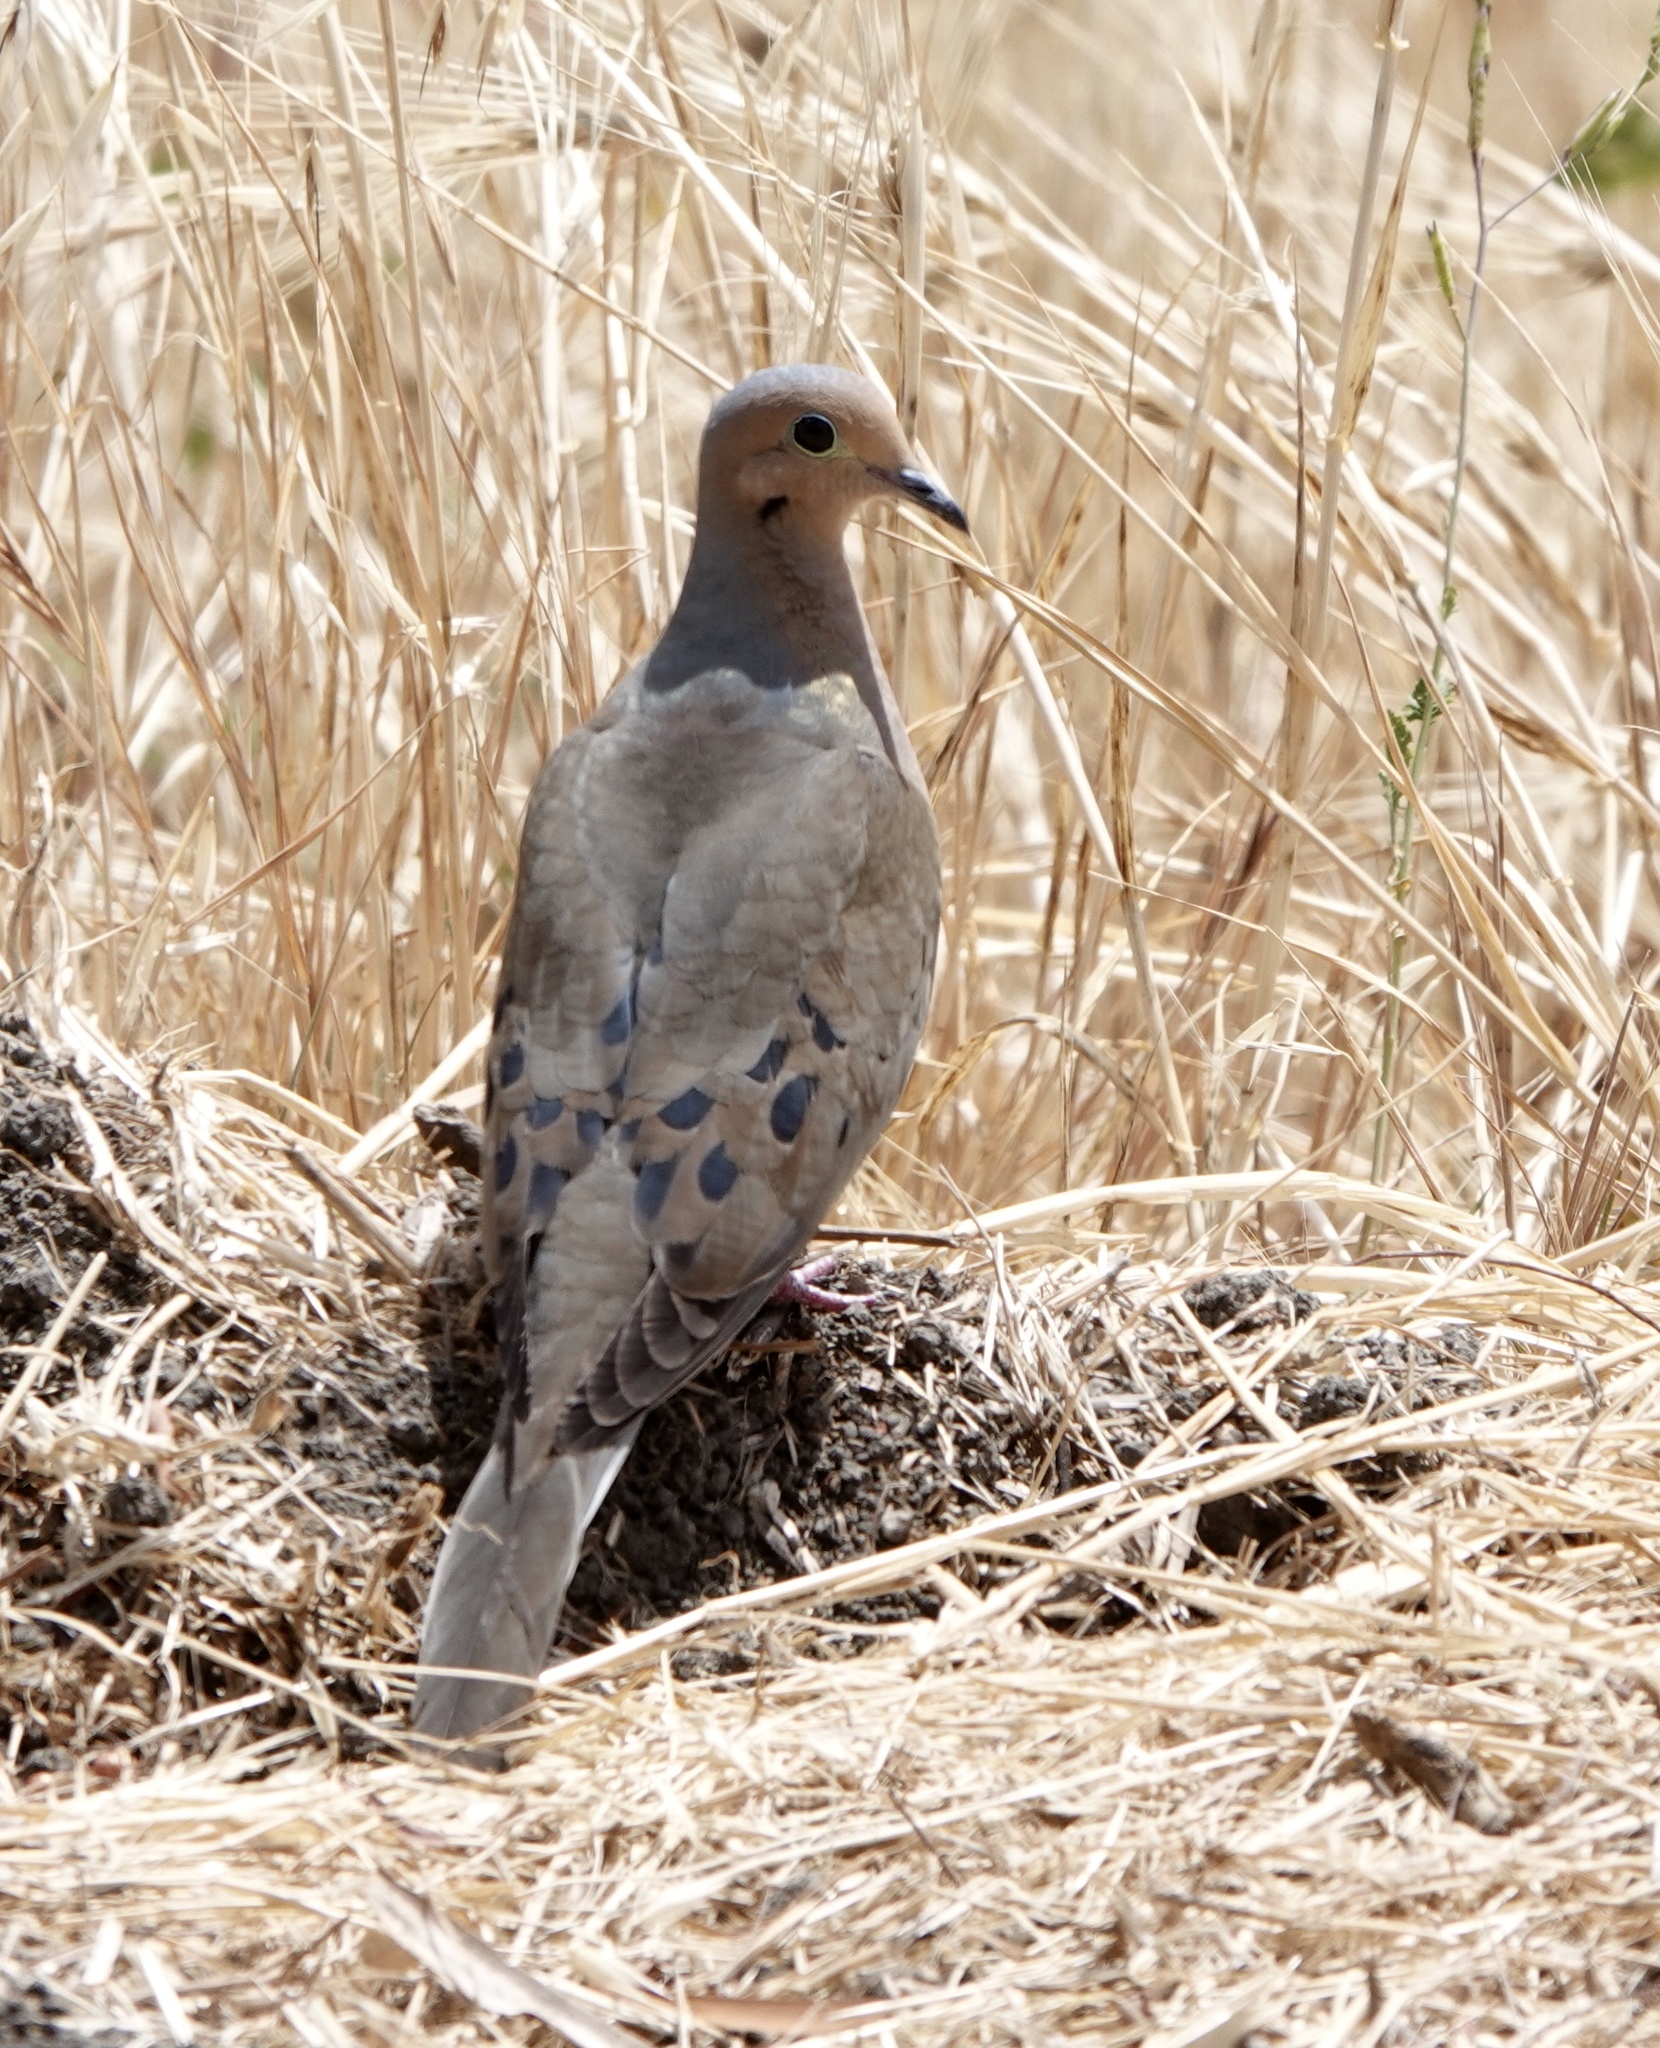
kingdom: Animalia
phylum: Chordata
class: Aves
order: Columbiformes
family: Columbidae
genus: Zenaida
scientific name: Zenaida macroura
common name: Mourning dove
